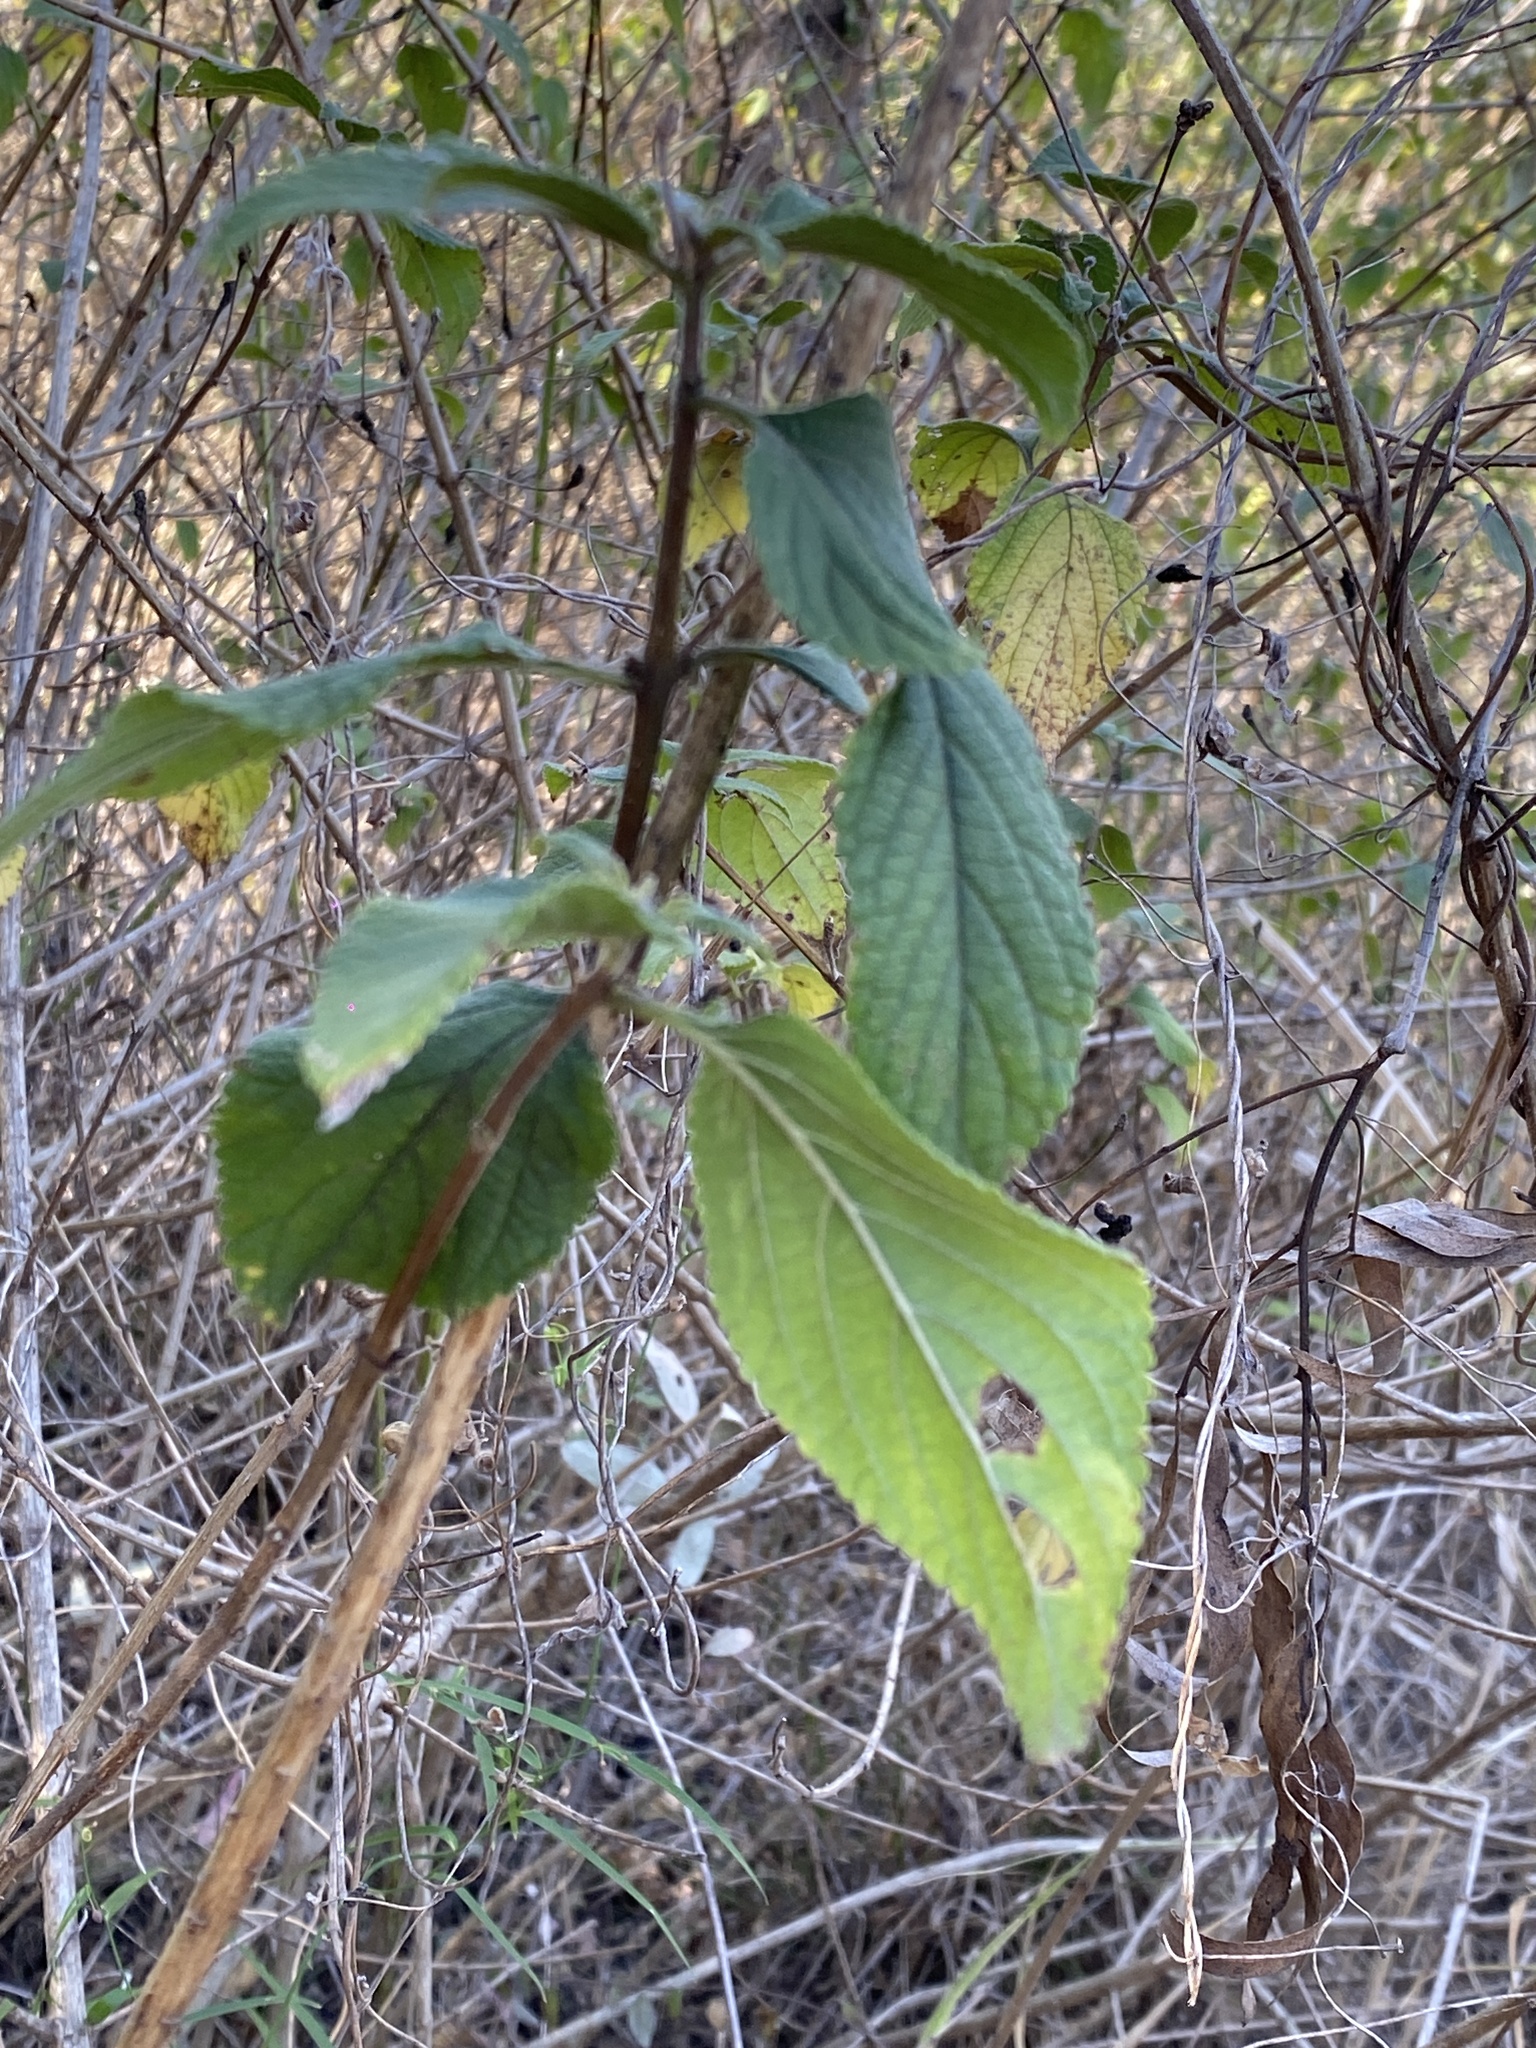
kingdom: Plantae
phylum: Tracheophyta
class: Magnoliopsida
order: Lamiales
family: Verbenaceae
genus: Lantana
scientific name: Lantana camara
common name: Lantana
